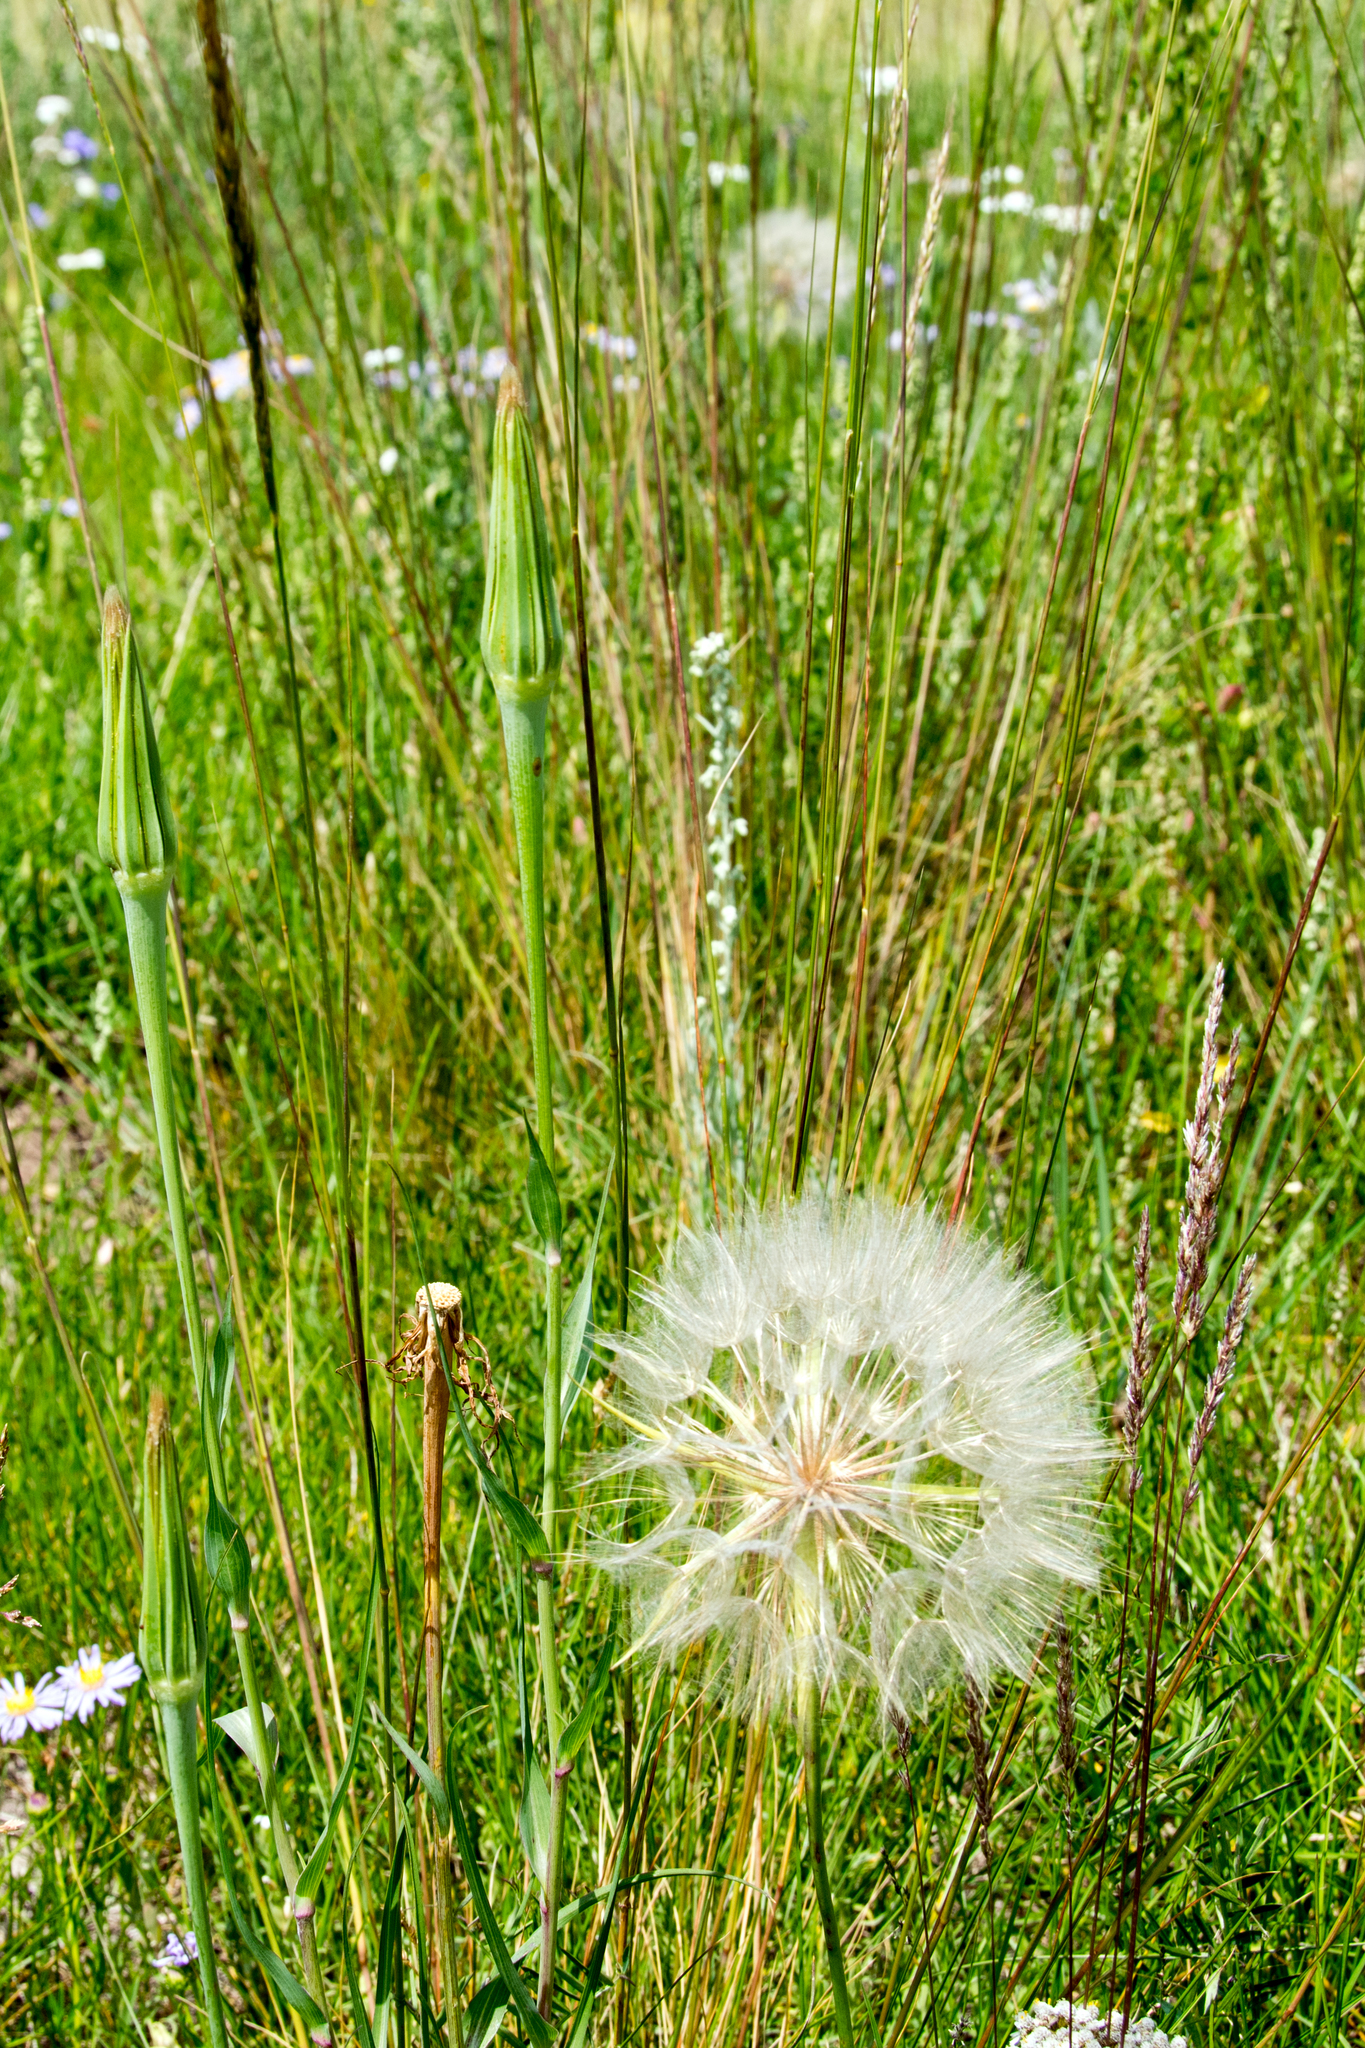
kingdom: Plantae
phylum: Tracheophyta
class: Magnoliopsida
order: Asterales
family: Asteraceae
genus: Tragopogon
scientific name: Tragopogon dubius
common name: Yellow salsify
